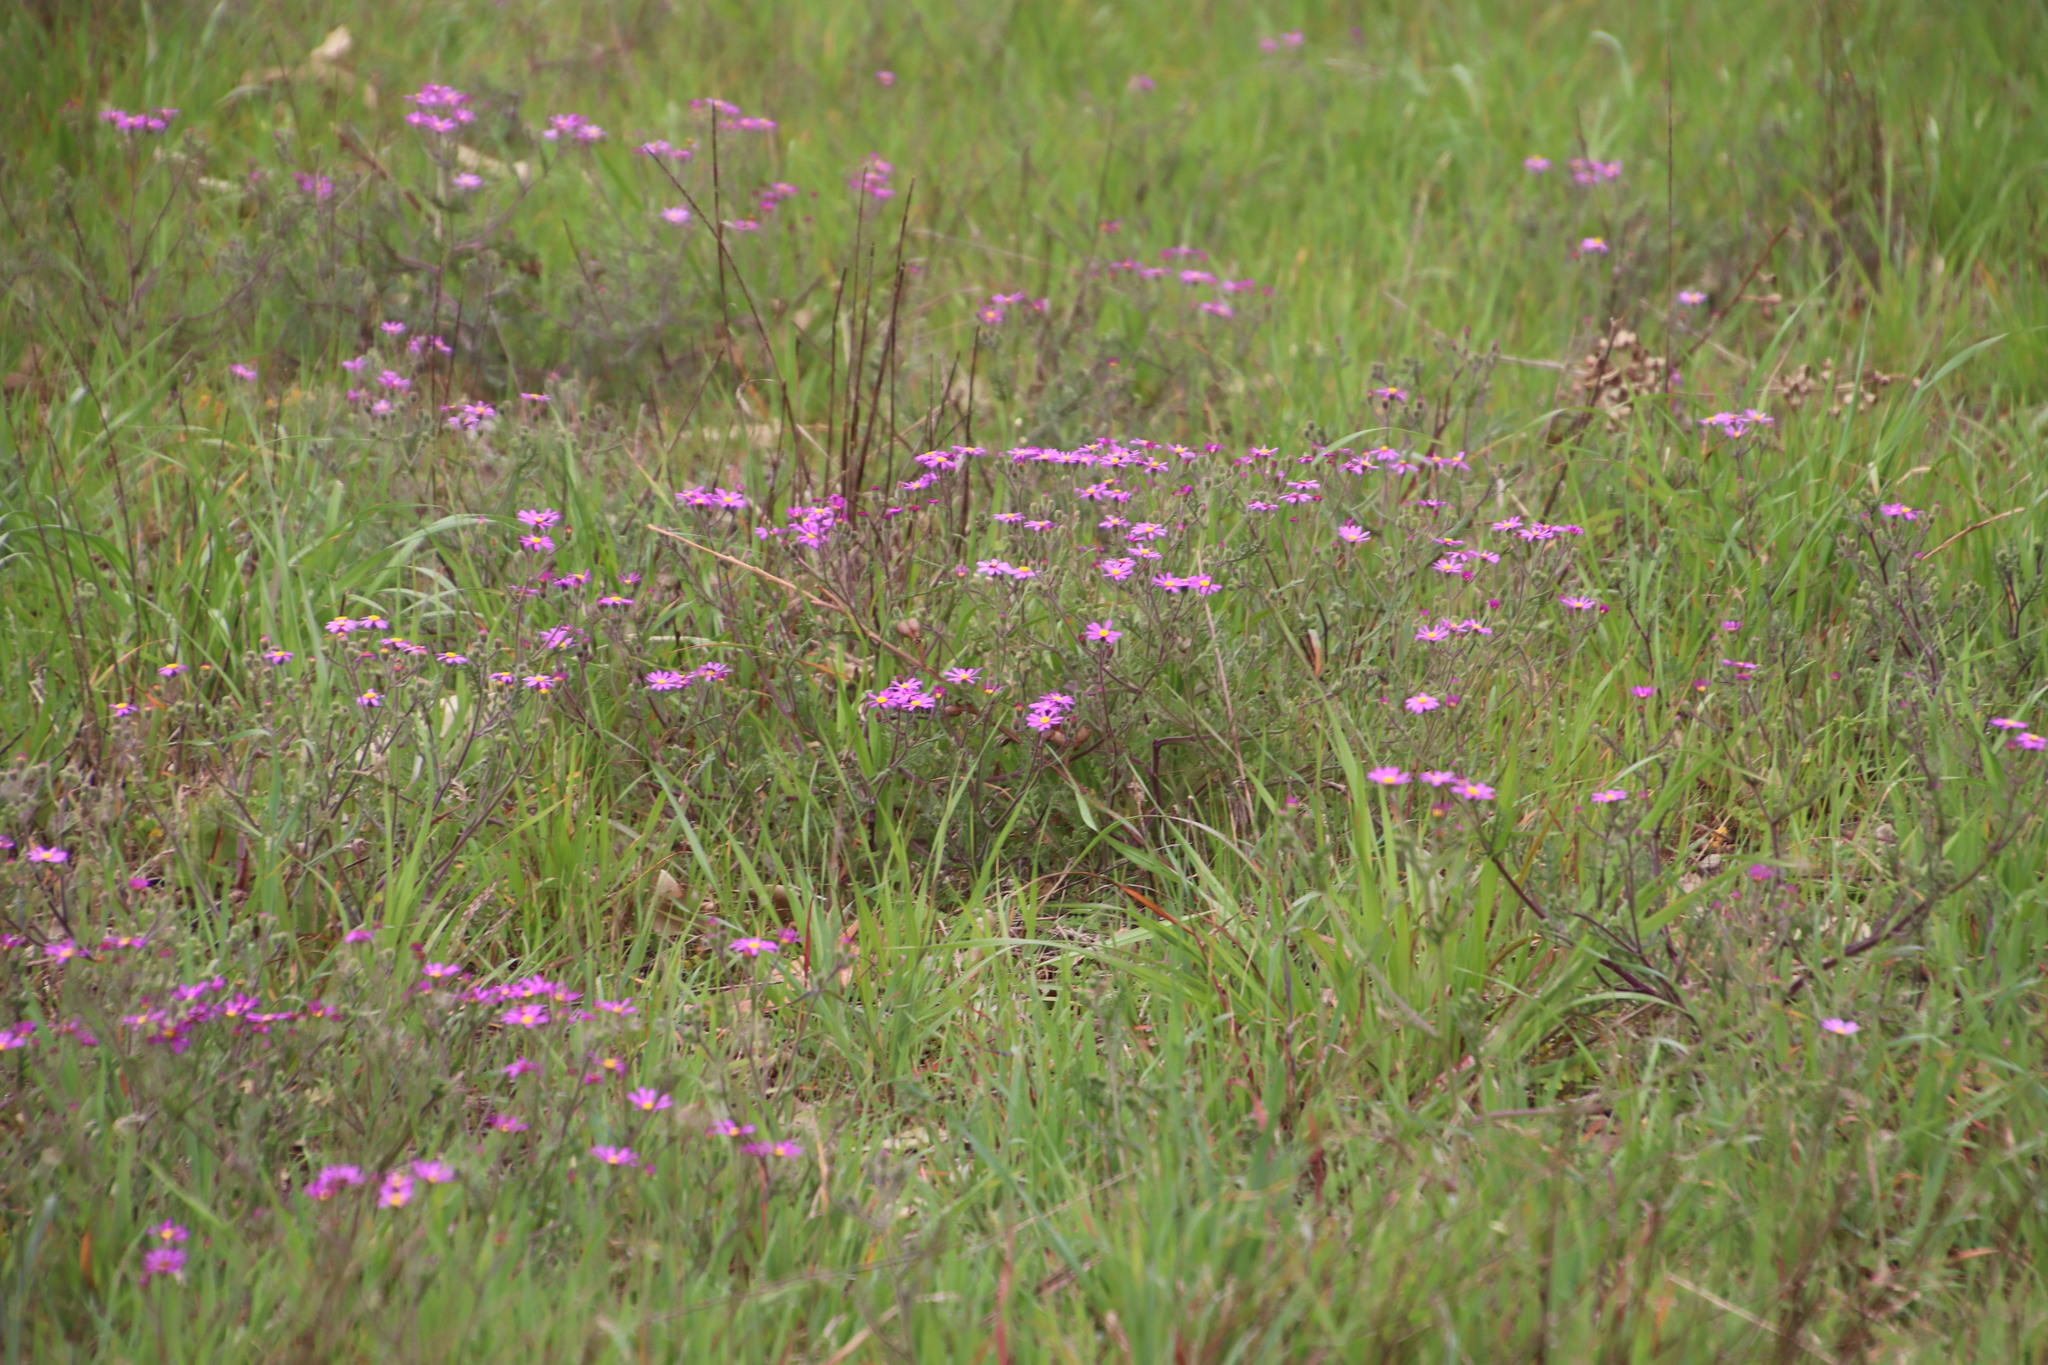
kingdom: Plantae
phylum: Tracheophyta
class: Magnoliopsida
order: Asterales
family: Asteraceae
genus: Senecio
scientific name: Senecio arenarius
